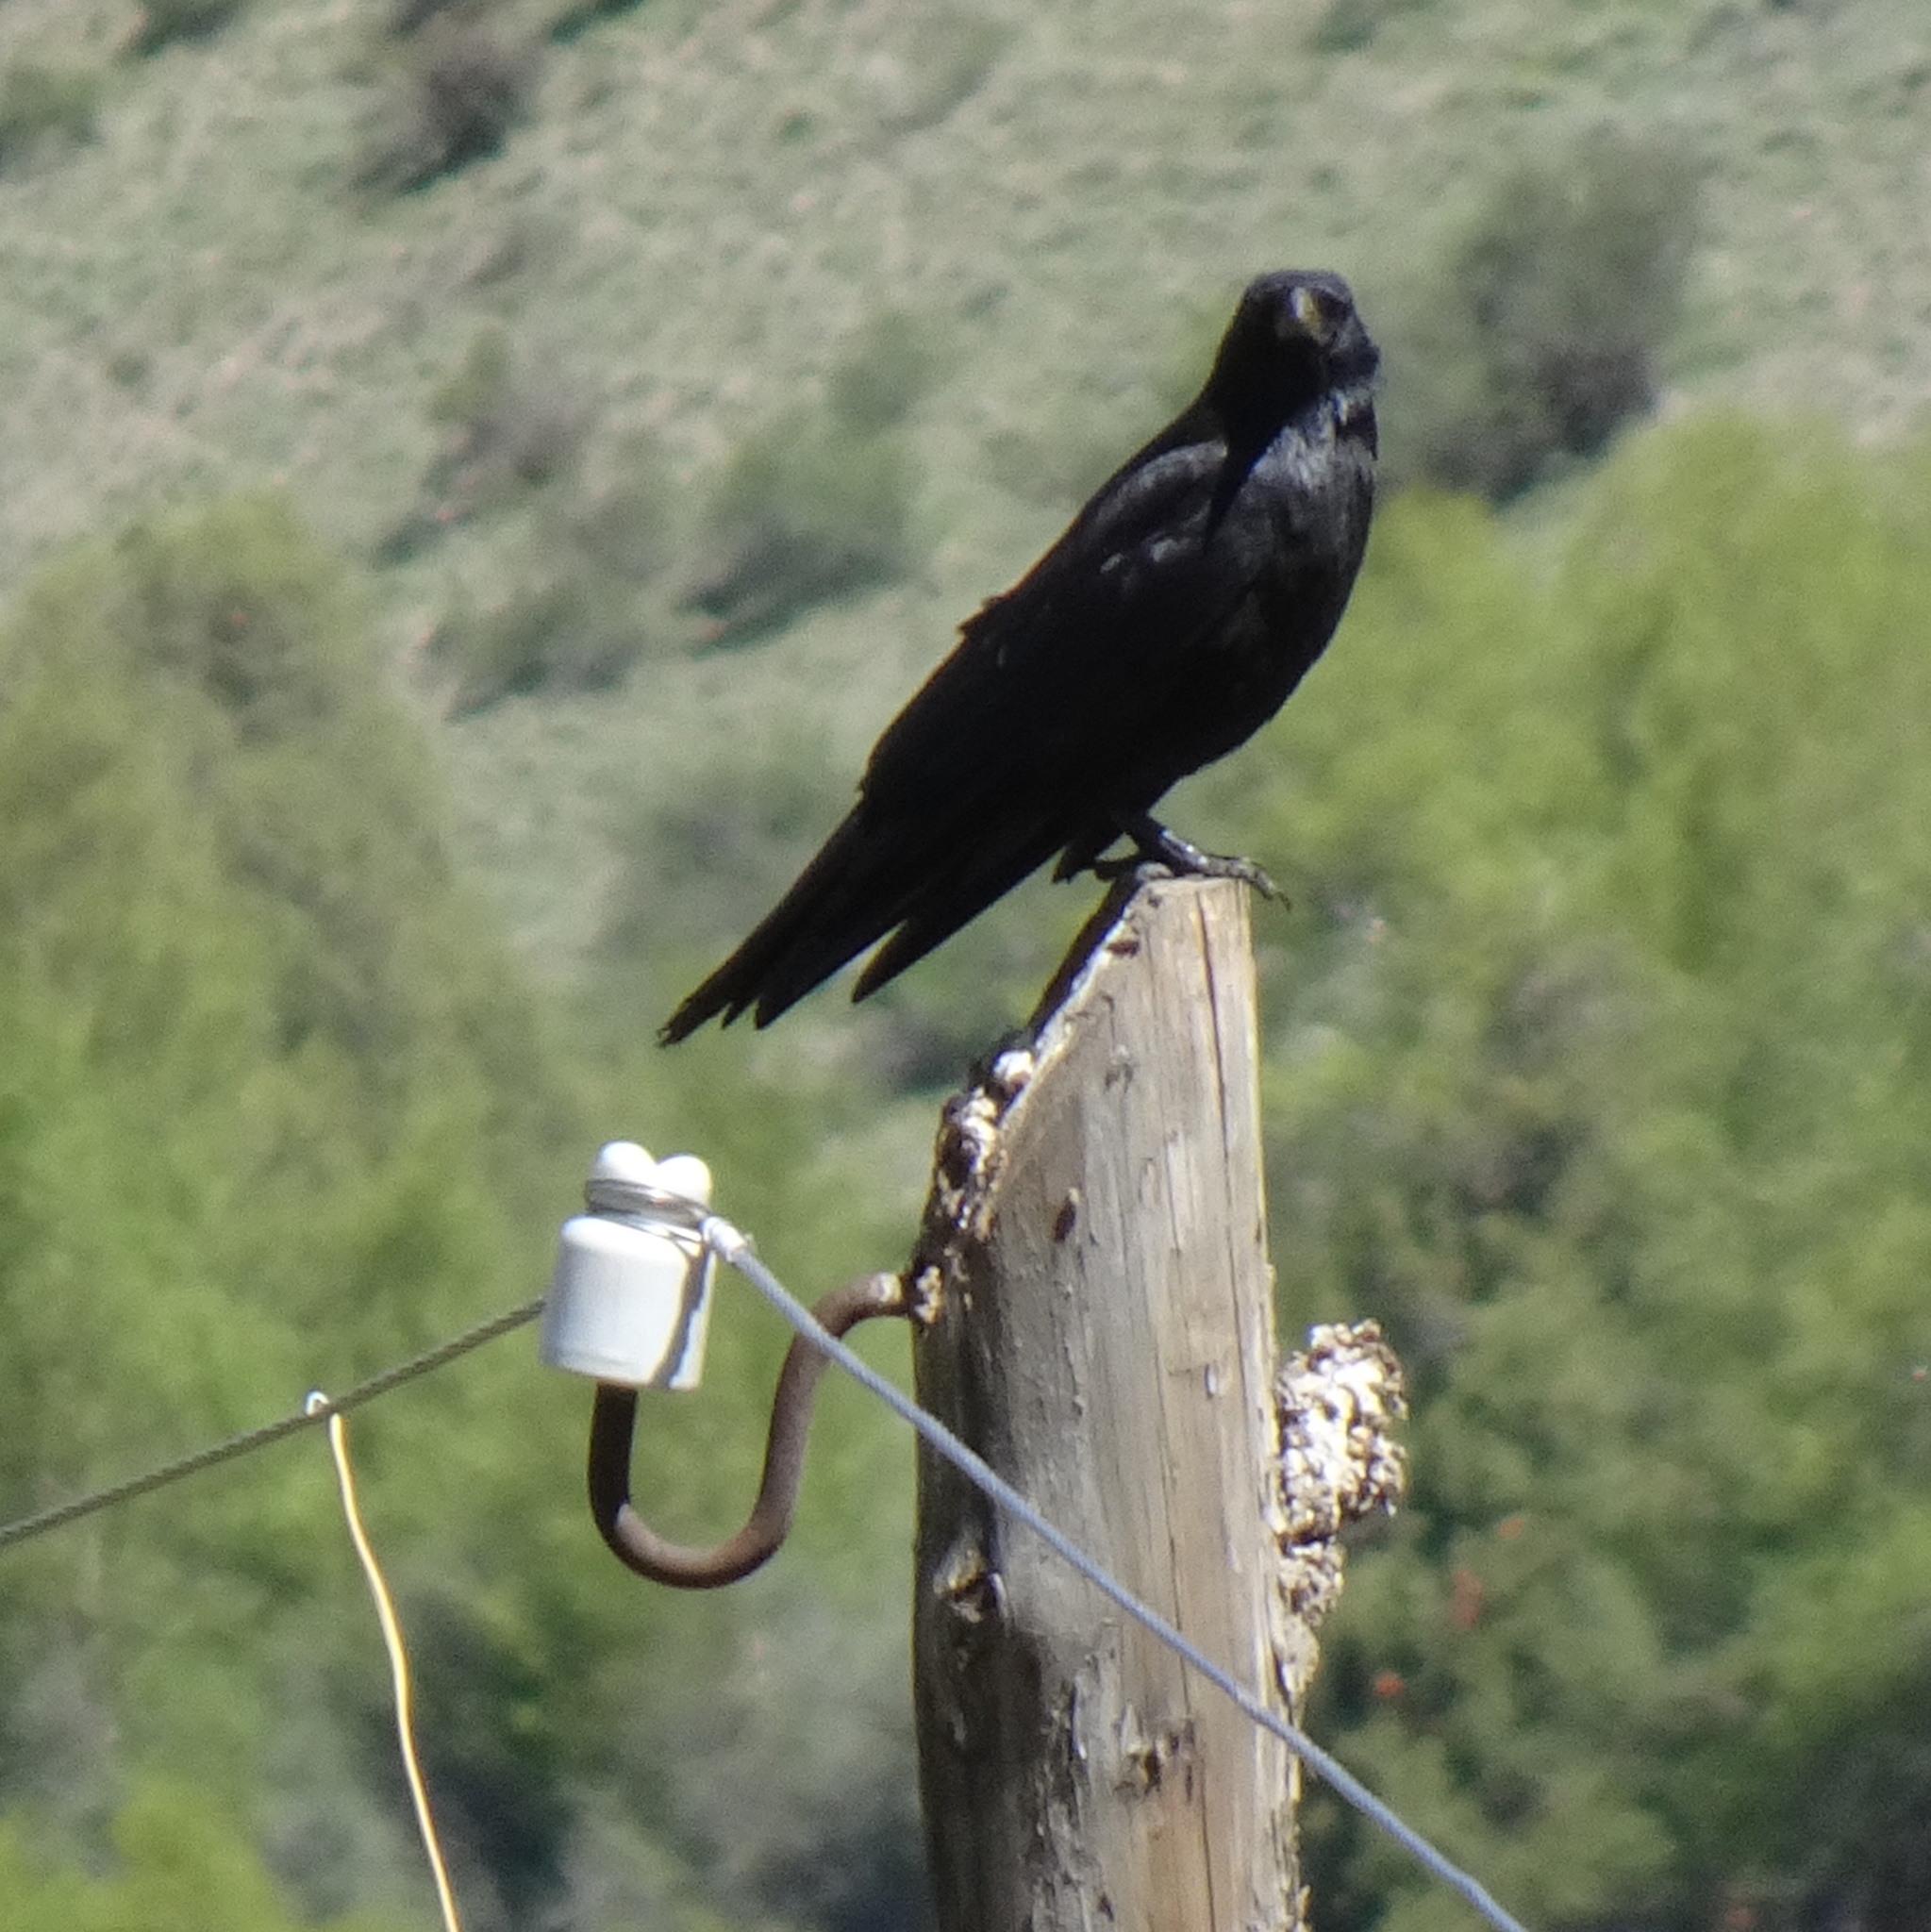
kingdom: Animalia
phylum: Chordata
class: Aves
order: Passeriformes
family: Corvidae
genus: Corvus
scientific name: Corvus corone
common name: Carrion crow
